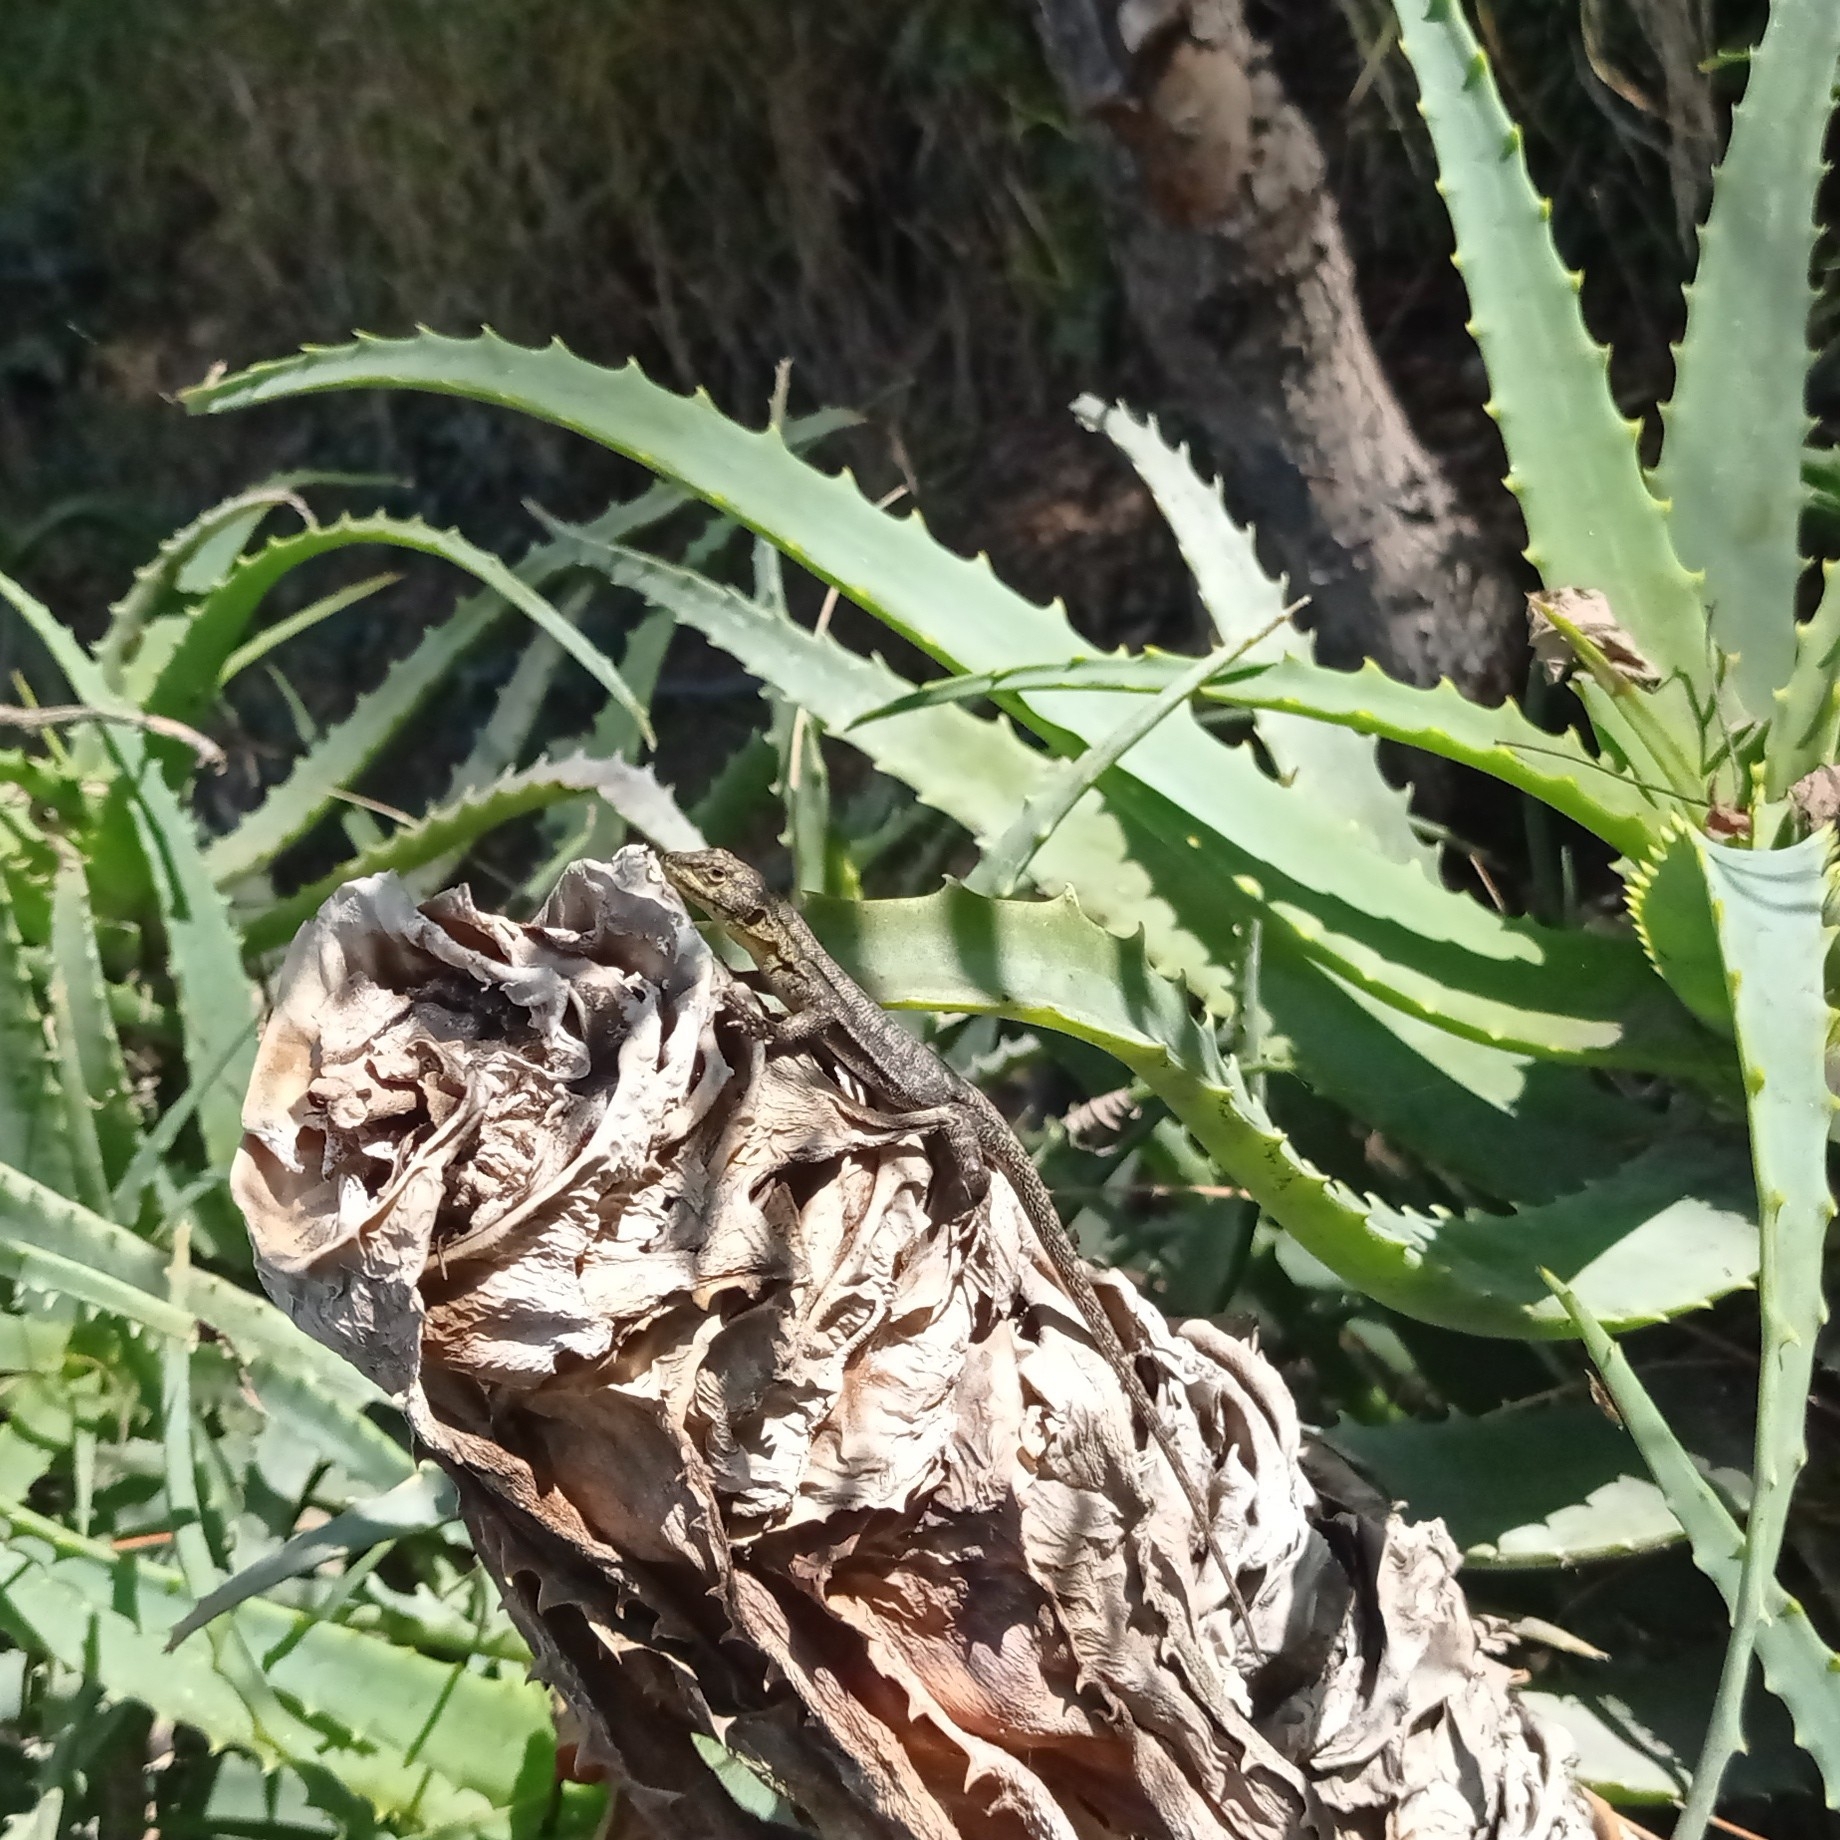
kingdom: Animalia
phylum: Chordata
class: Squamata
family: Liolaemidae
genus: Liolaemus
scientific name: Liolaemus tenuis
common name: Thin tree iguana
